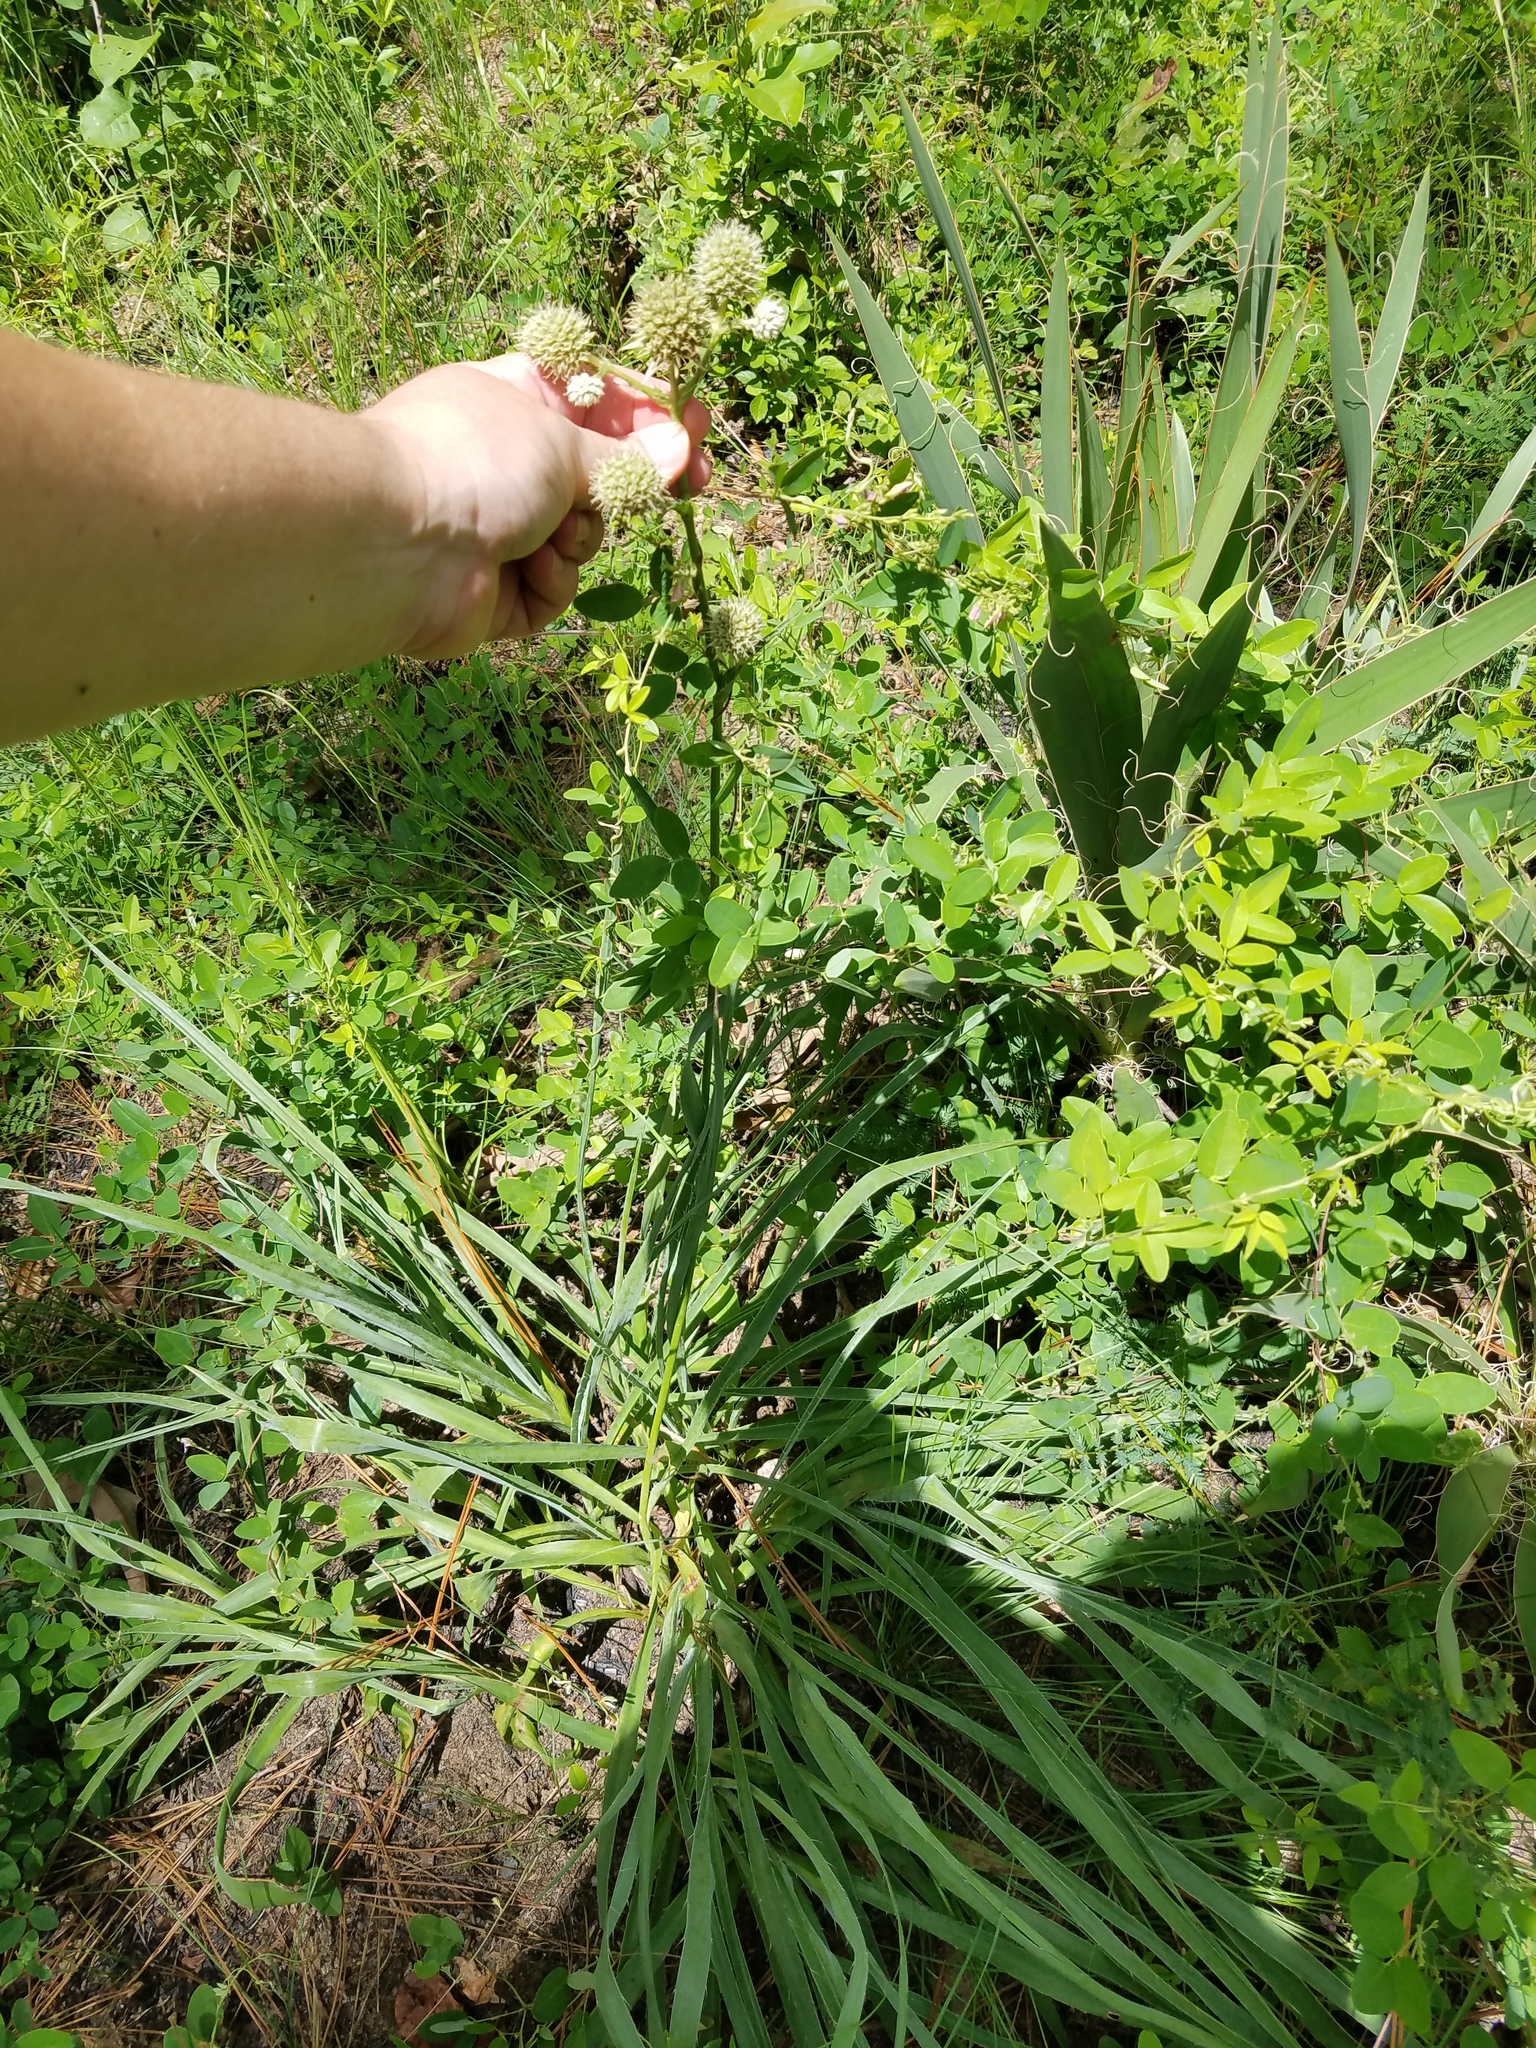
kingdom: Plantae
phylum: Tracheophyta
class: Magnoliopsida
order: Apiales
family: Apiaceae
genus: Eryngium
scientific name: Eryngium yuccifolium
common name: Button eryngo
